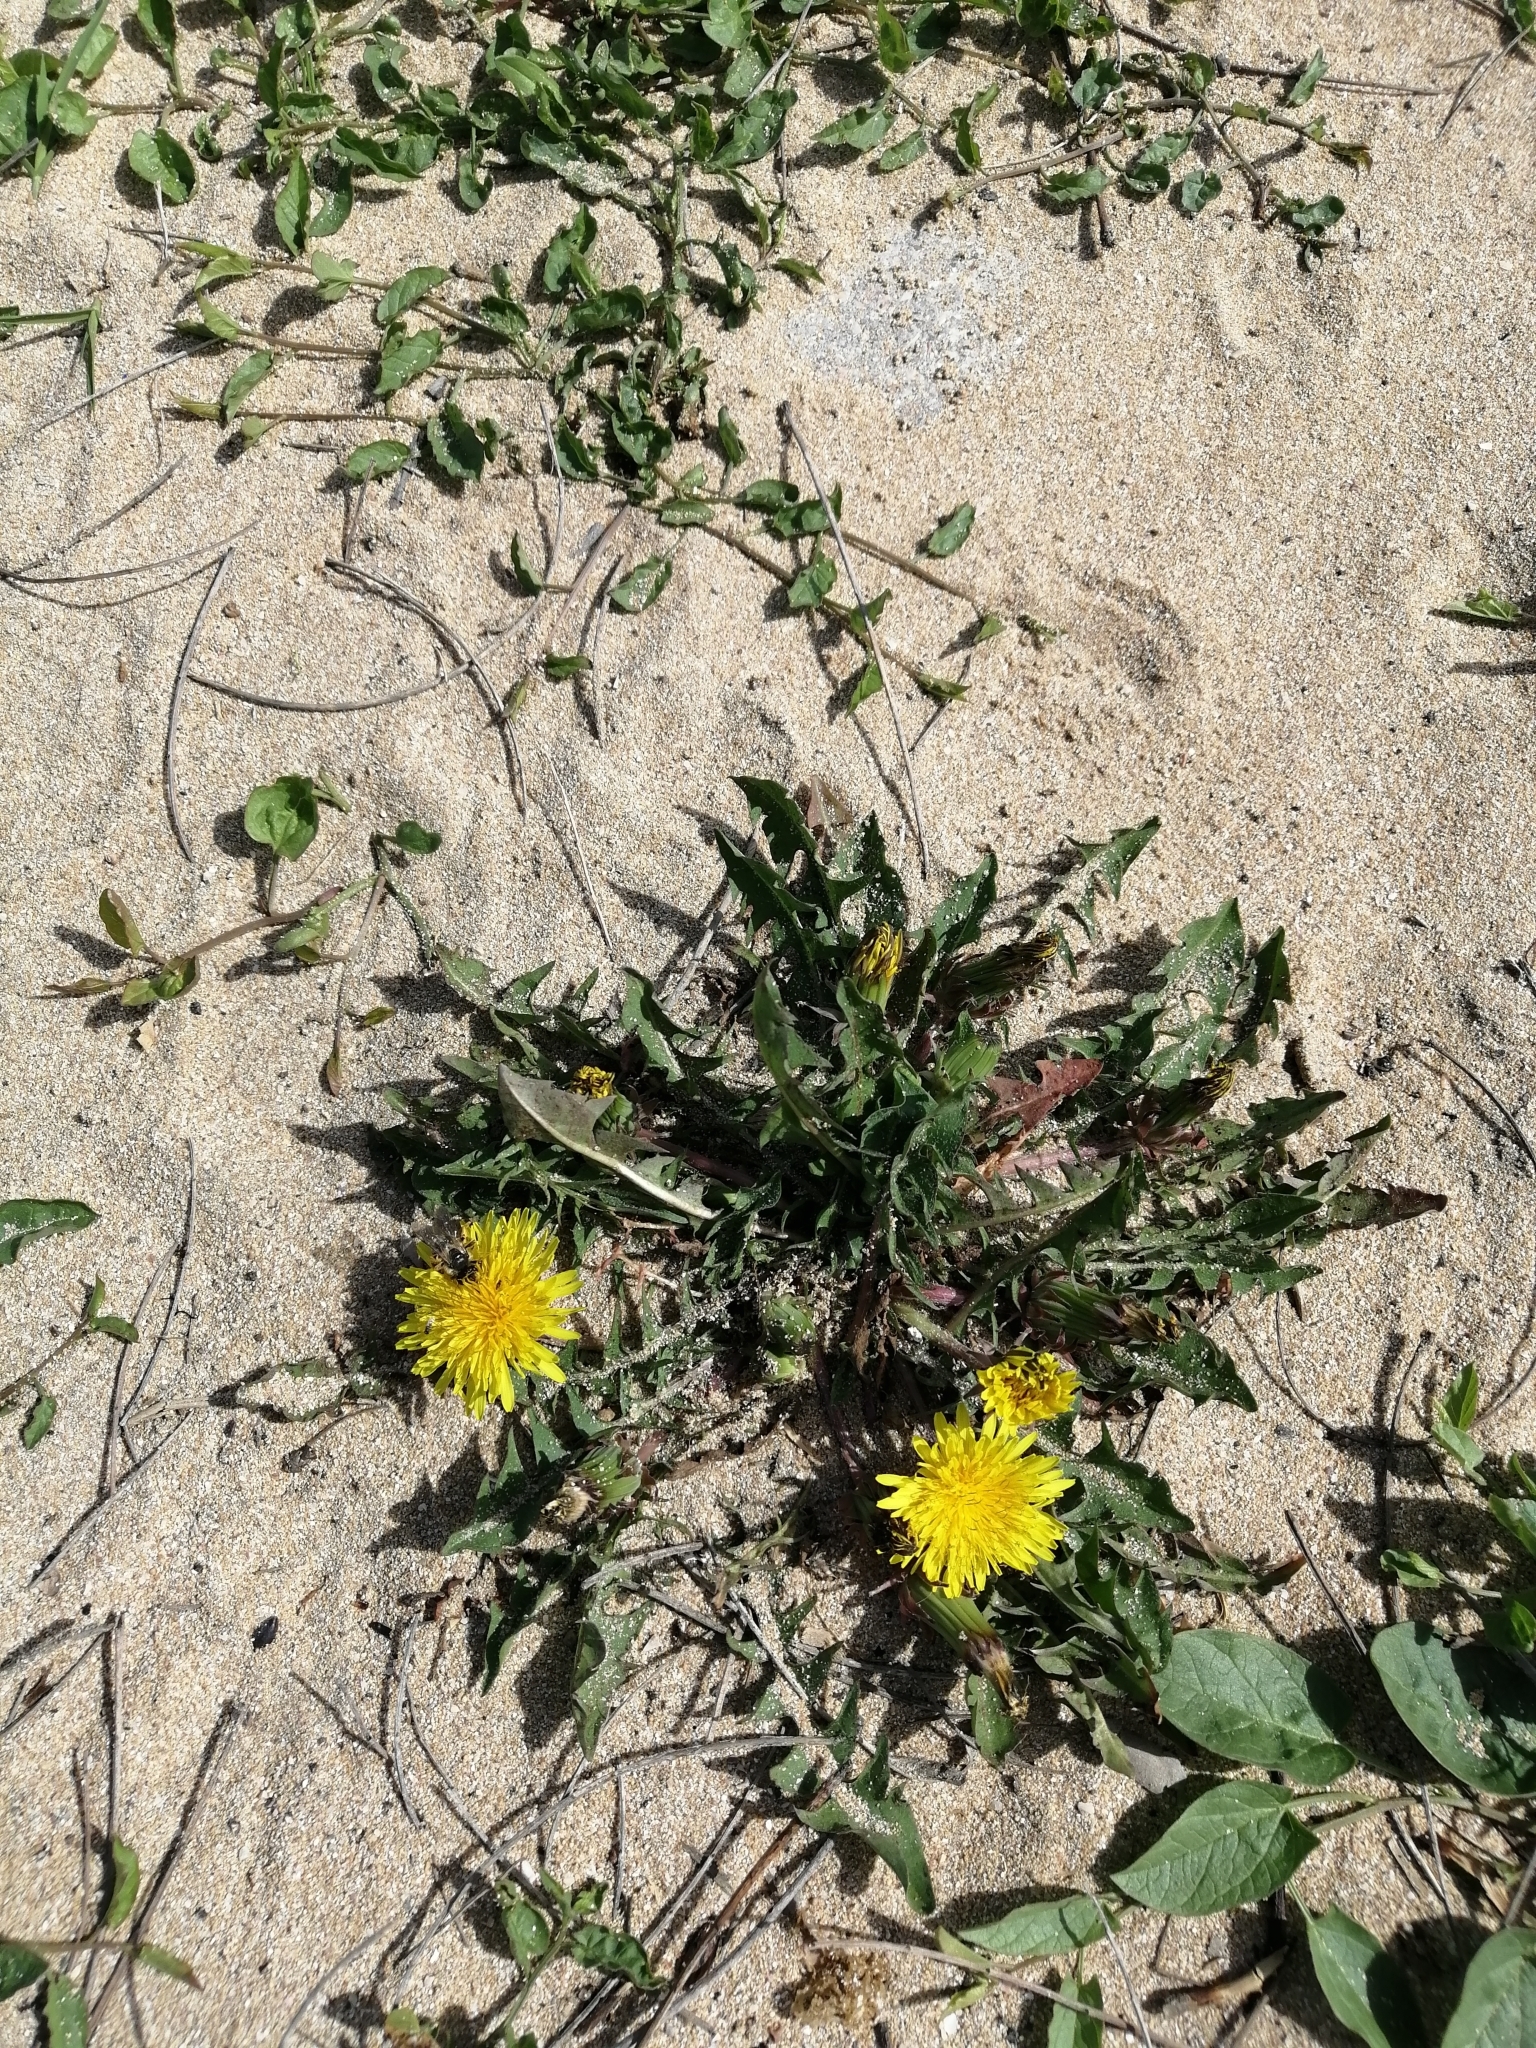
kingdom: Plantae
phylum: Tracheophyta
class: Magnoliopsida
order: Asterales
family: Asteraceae
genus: Taraxacum
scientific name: Taraxacum officinale
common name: Common dandelion
